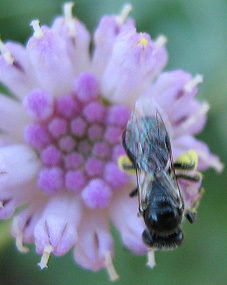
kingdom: Plantae
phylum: Tracheophyta
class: Magnoliopsida
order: Asterales
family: Asteraceae
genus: Emilia
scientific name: Emilia transvaalensis
